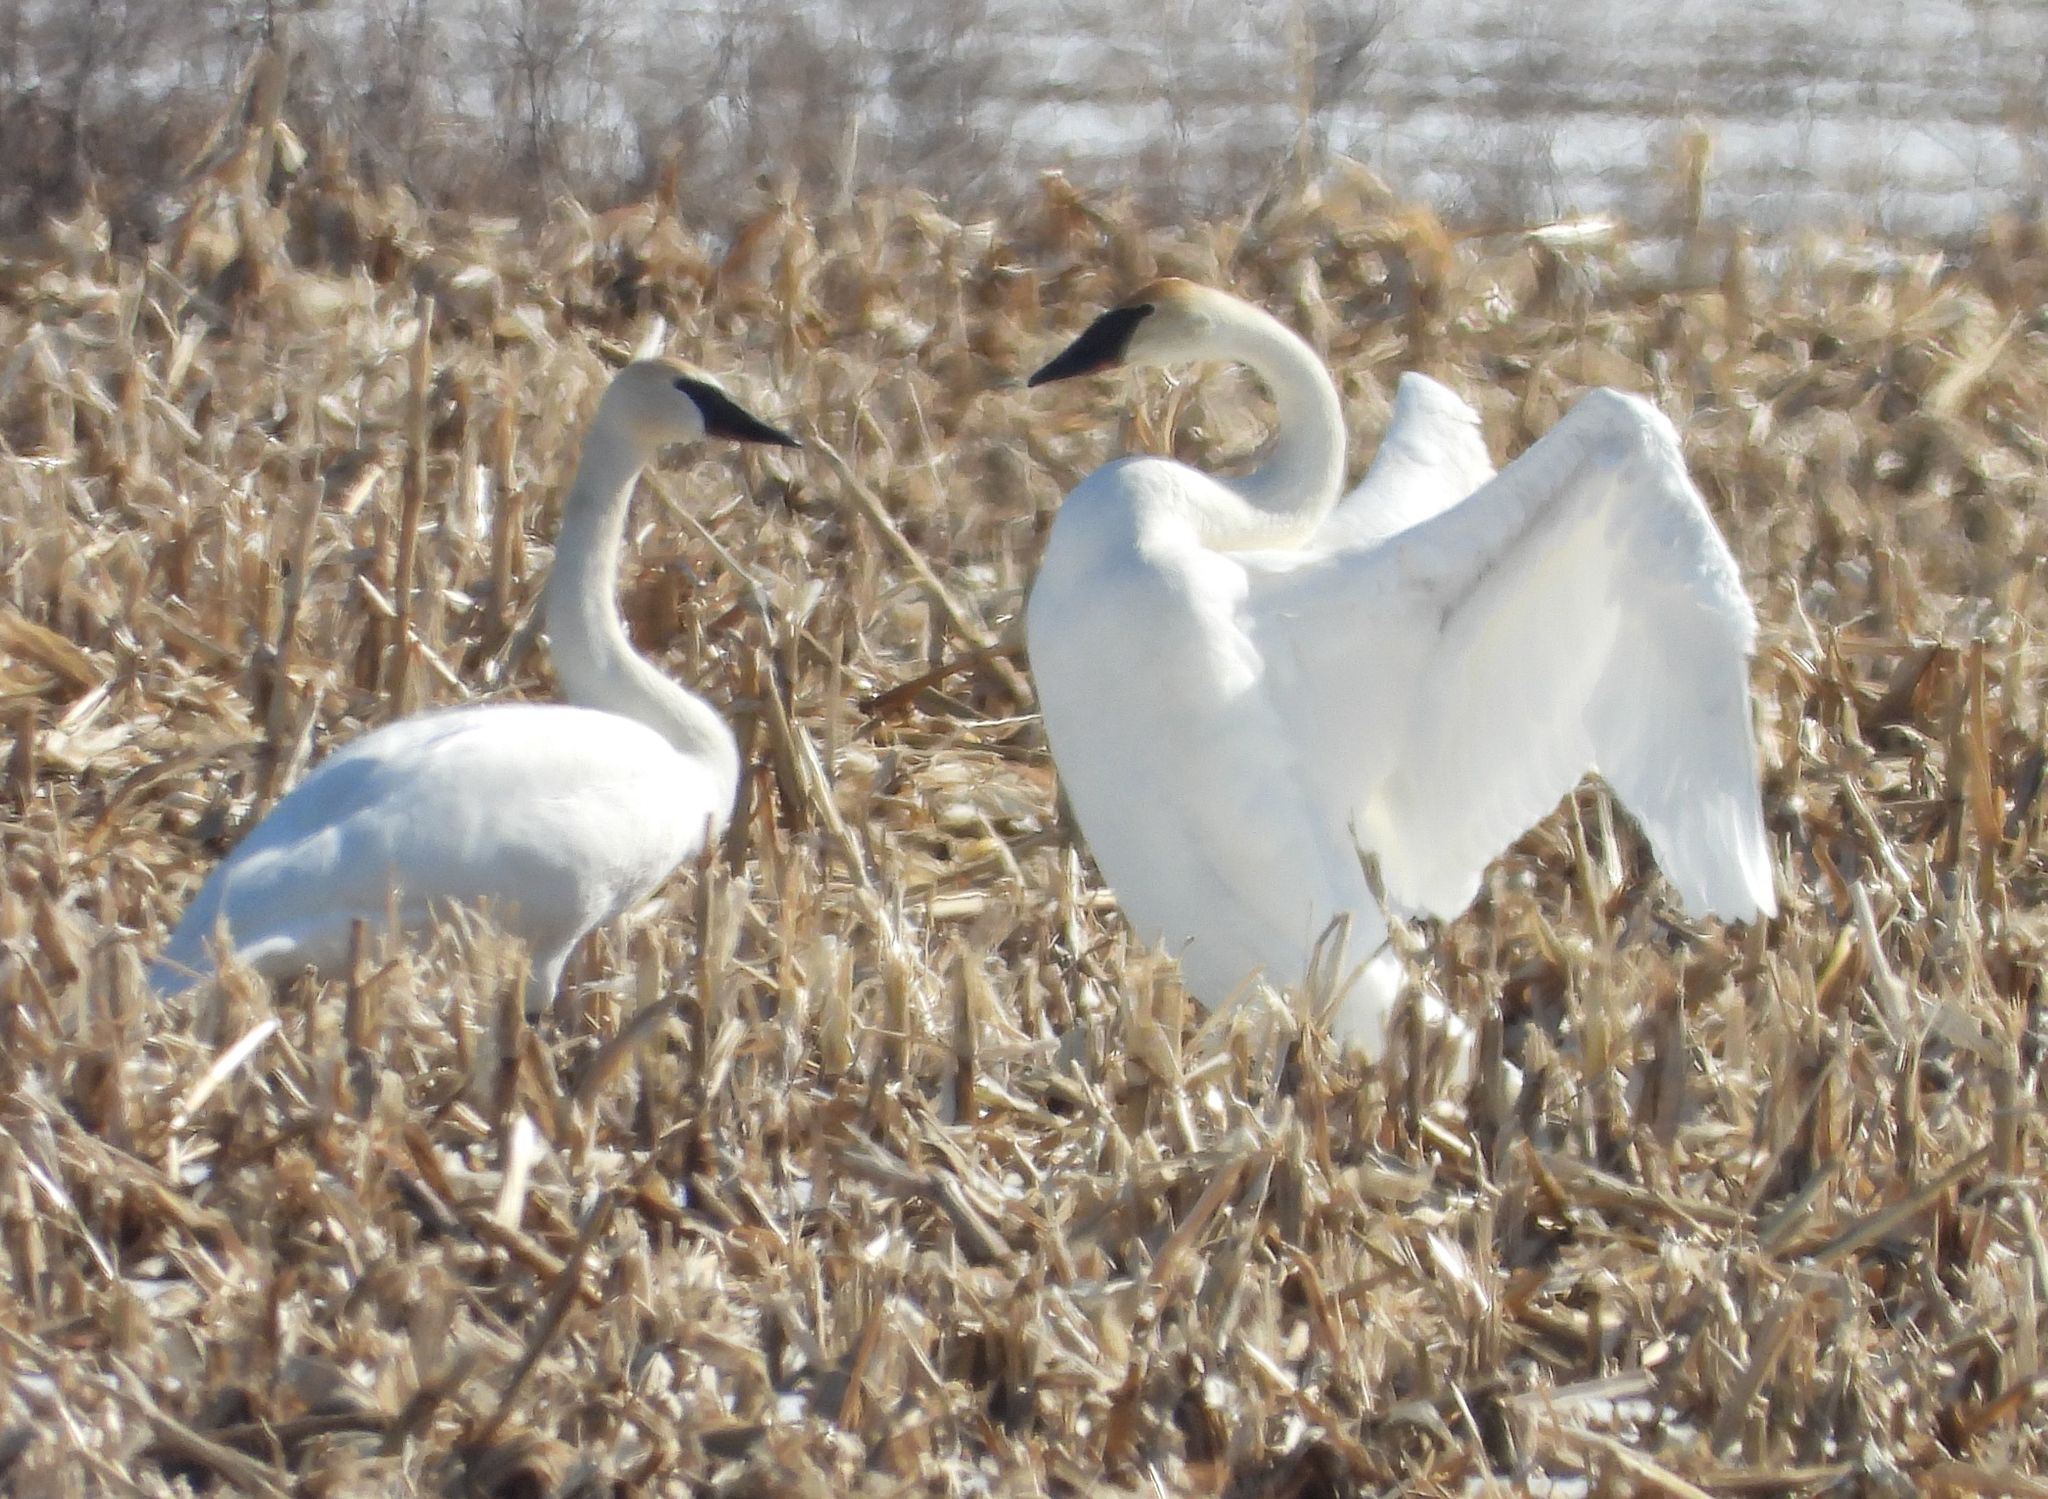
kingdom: Animalia
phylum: Chordata
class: Aves
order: Anseriformes
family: Anatidae
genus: Cygnus
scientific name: Cygnus buccinator
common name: Trumpeter swan
